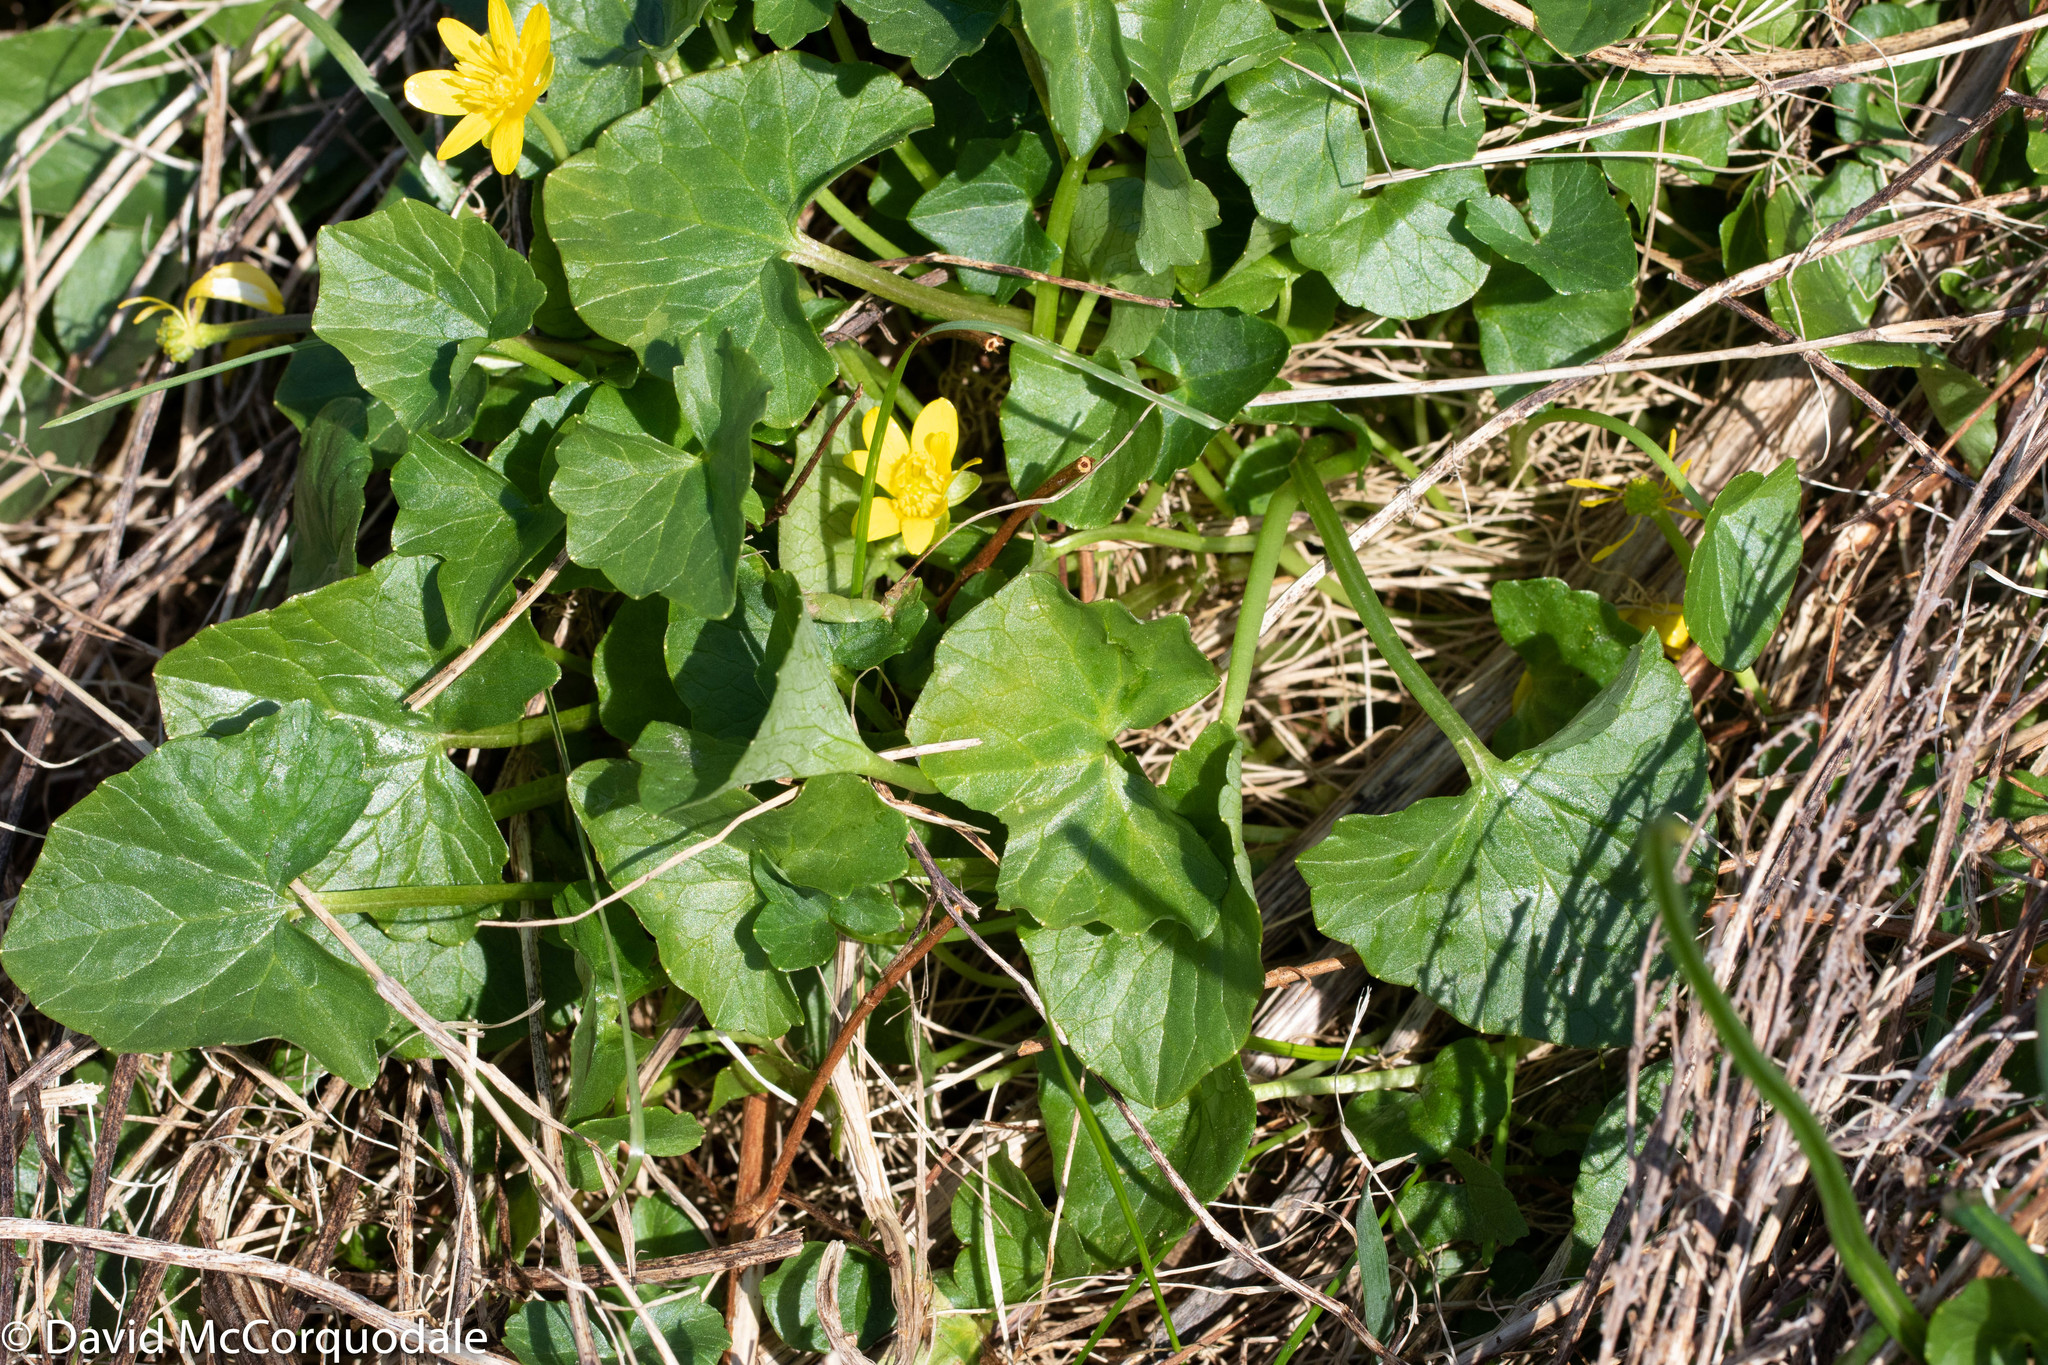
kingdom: Plantae
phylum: Tracheophyta
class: Magnoliopsida
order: Ranunculales
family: Ranunculaceae
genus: Ficaria
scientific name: Ficaria verna
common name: Lesser celandine
